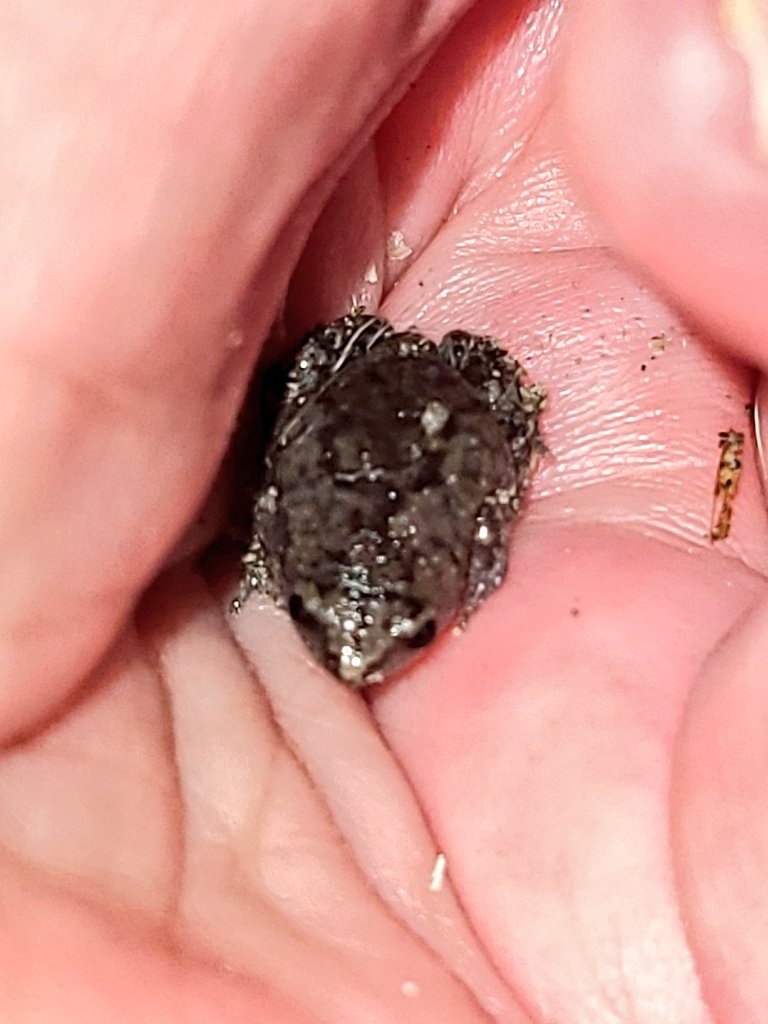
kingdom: Animalia
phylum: Chordata
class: Amphibia
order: Anura
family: Microhylidae
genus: Gastrophryne
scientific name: Gastrophryne carolinensis
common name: Eastern narrowmouth toad
